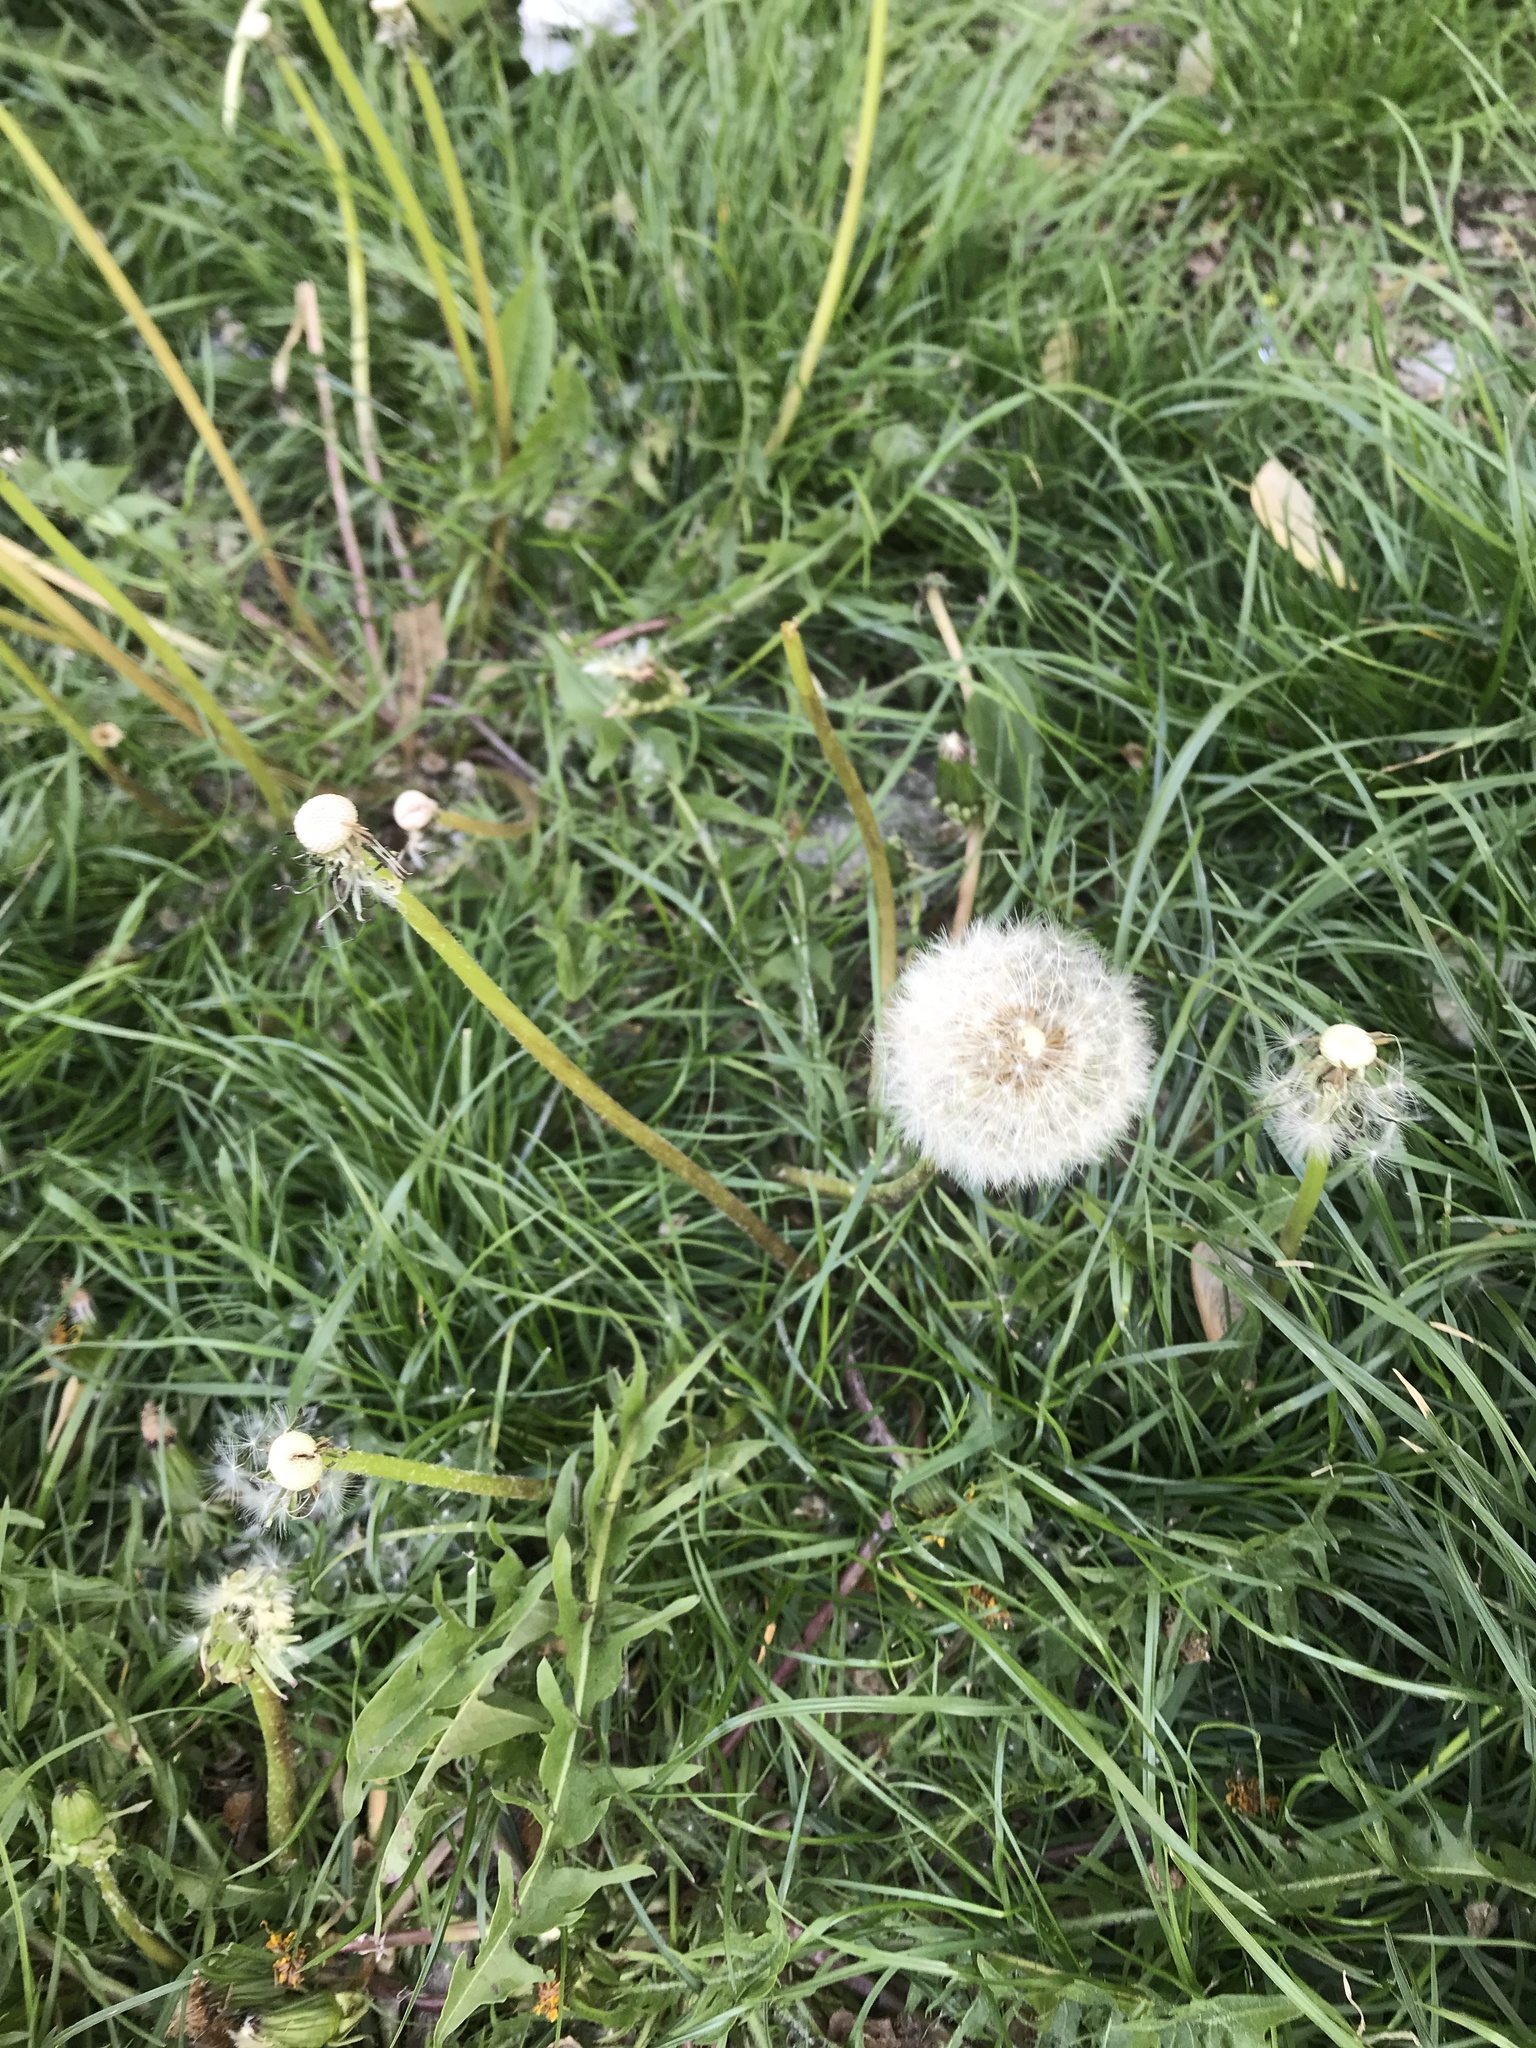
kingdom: Plantae
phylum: Tracheophyta
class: Magnoliopsida
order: Asterales
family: Asteraceae
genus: Taraxacum
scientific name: Taraxacum officinale
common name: Common dandelion
